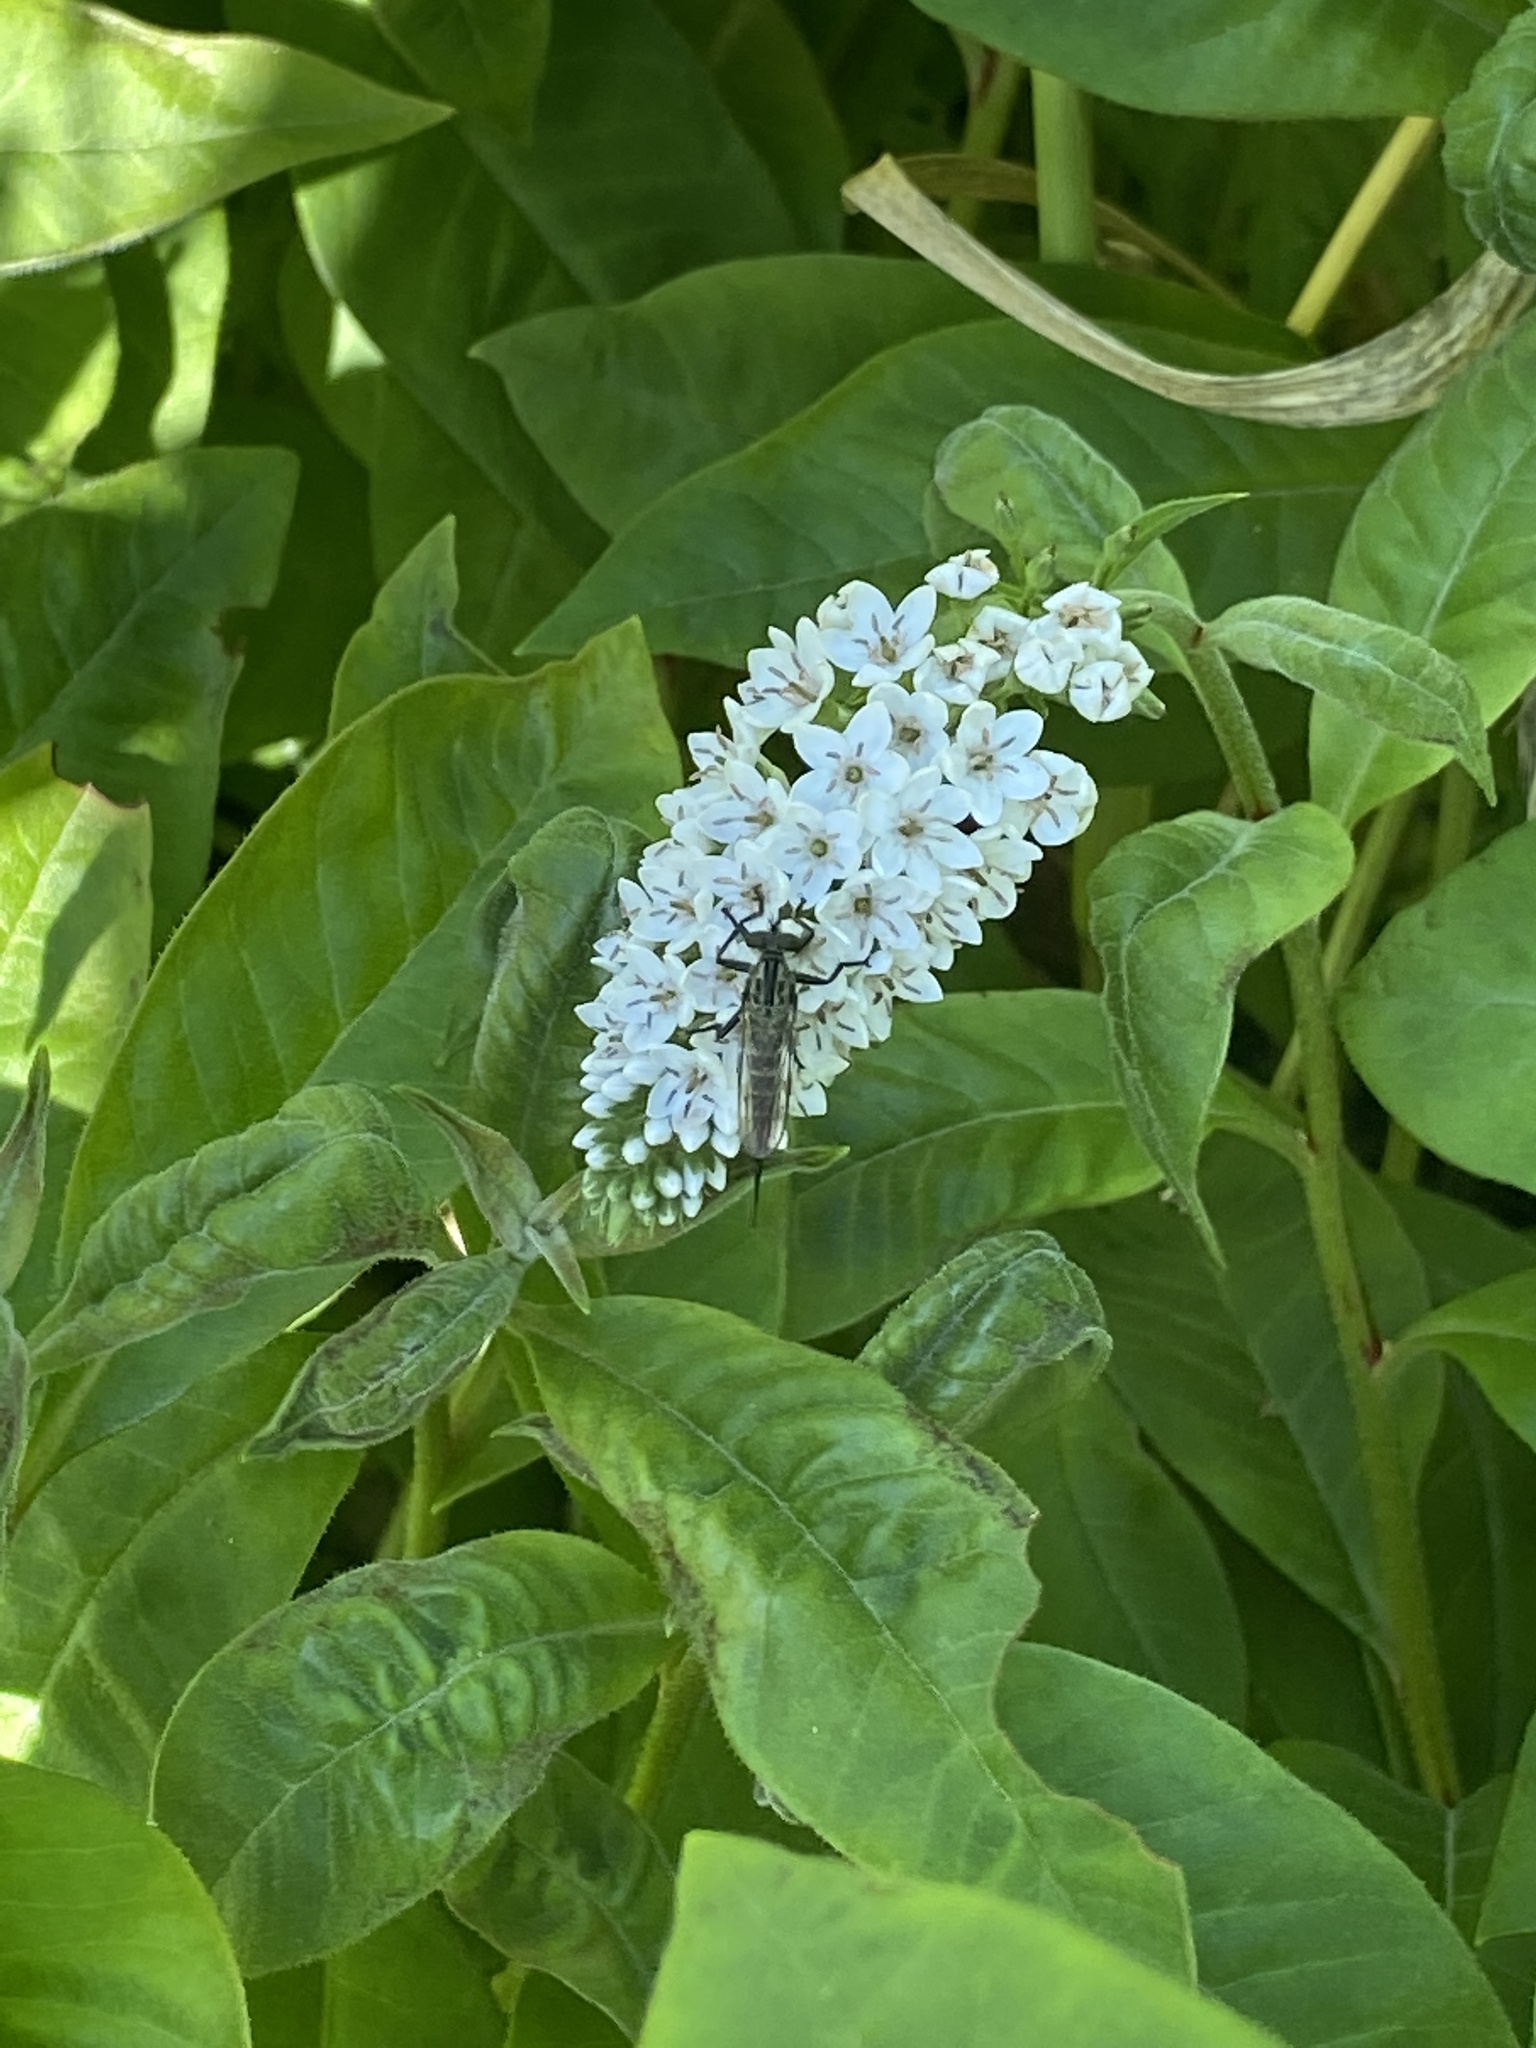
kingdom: Plantae
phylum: Tracheophyta
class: Magnoliopsida
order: Ericales
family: Primulaceae
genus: Lysimachia
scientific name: Lysimachia clethroides
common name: Gooseneck loosestrife
